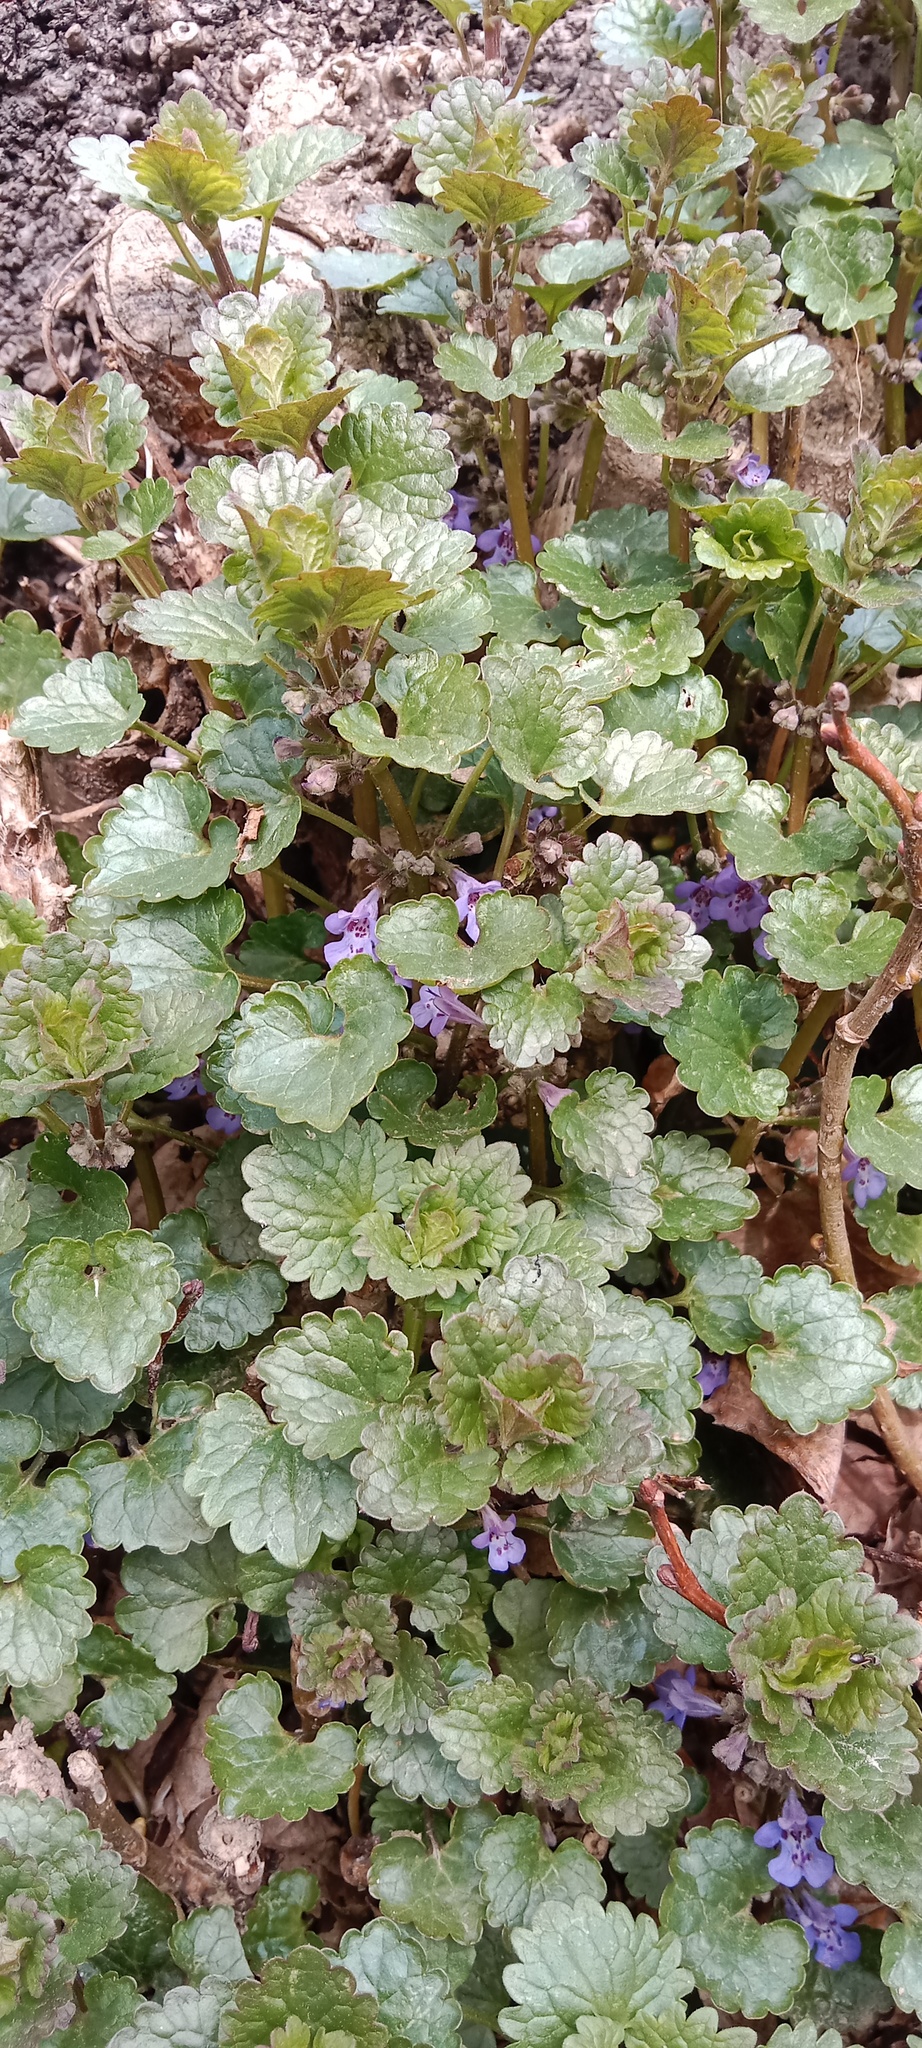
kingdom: Plantae
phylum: Tracheophyta
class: Magnoliopsida
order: Lamiales
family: Lamiaceae
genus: Glechoma
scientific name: Glechoma hederacea
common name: Ground ivy
